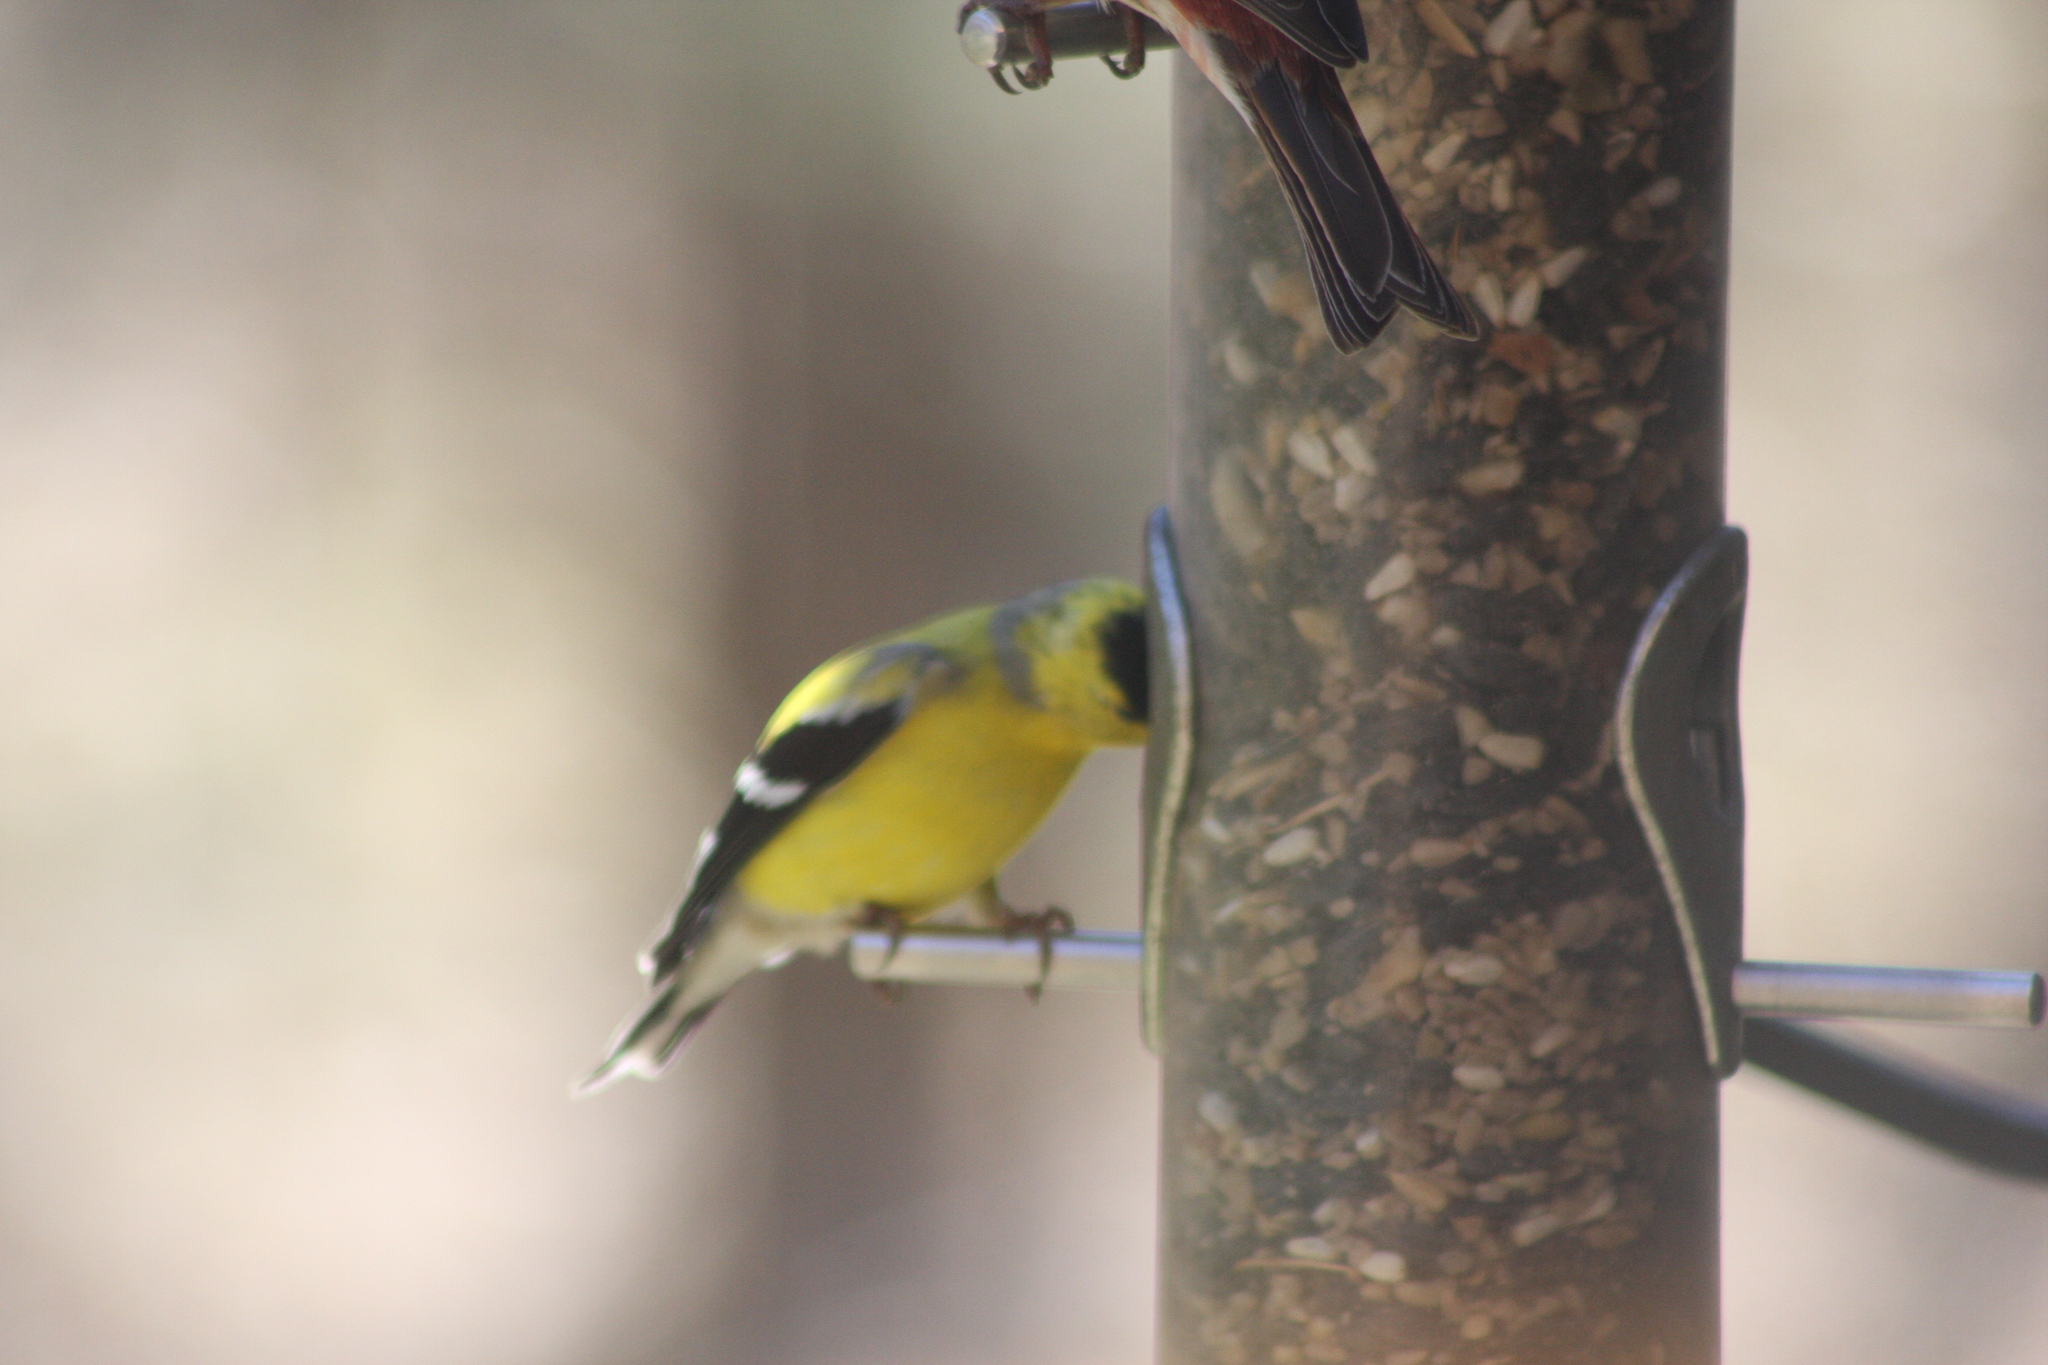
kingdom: Animalia
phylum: Chordata
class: Aves
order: Passeriformes
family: Fringillidae
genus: Spinus
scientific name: Spinus tristis
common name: American goldfinch
